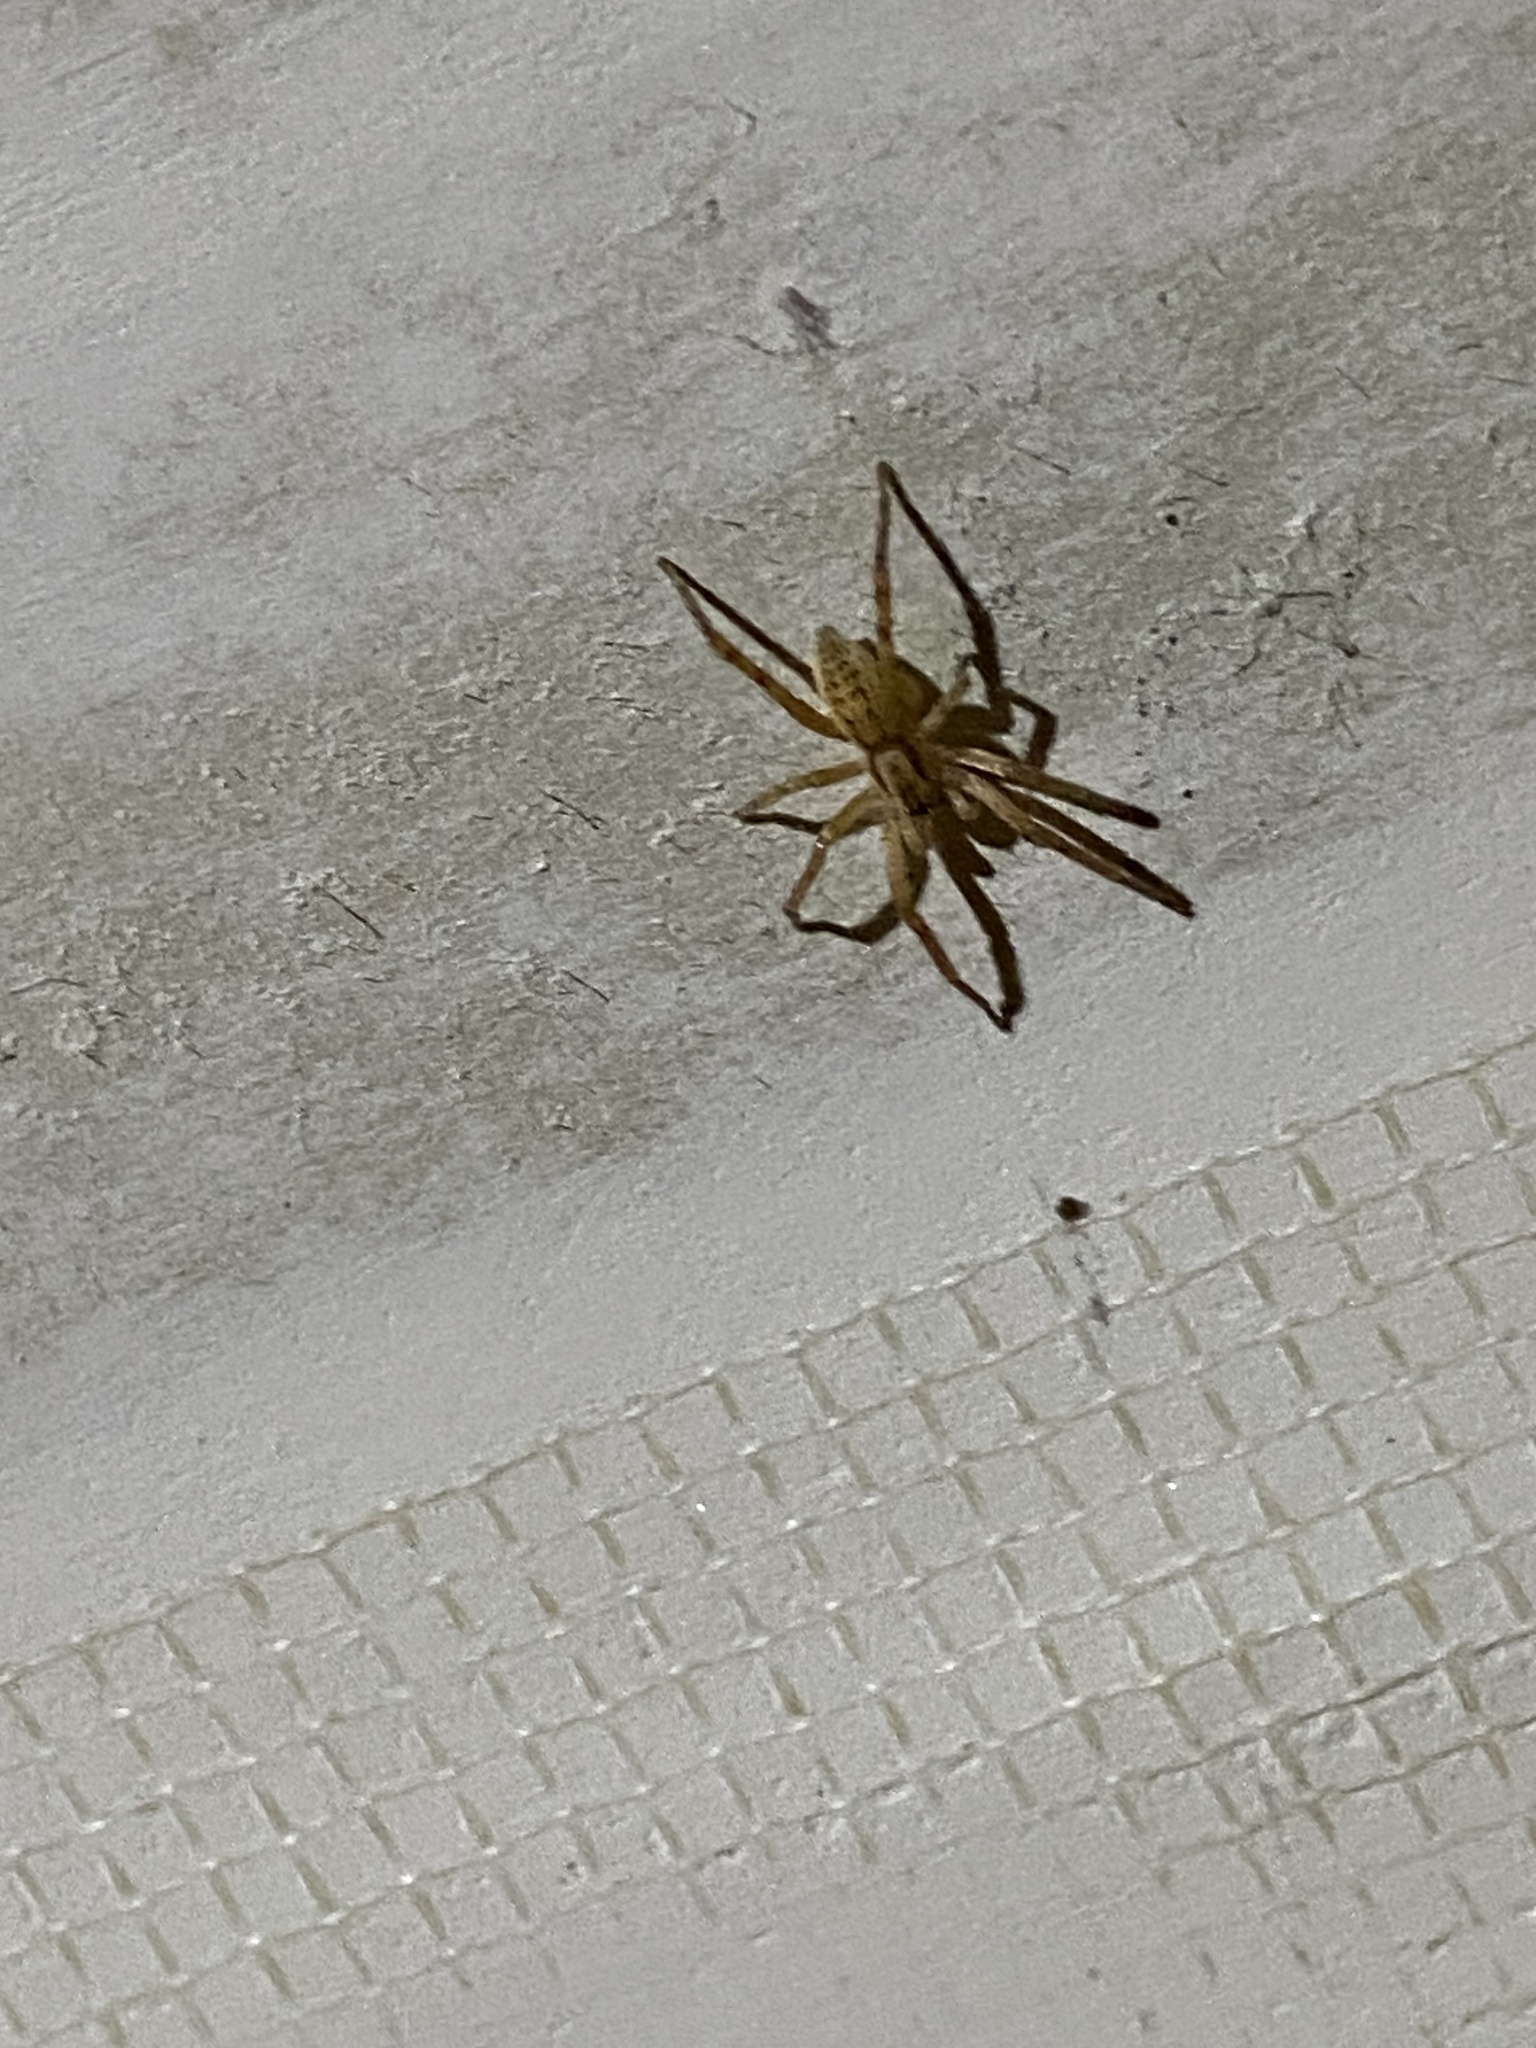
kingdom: Animalia
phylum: Arthropoda
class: Arachnida
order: Araneae
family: Anyphaenidae
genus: Hibana
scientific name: Hibana gracilis
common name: Garden ghost spider
